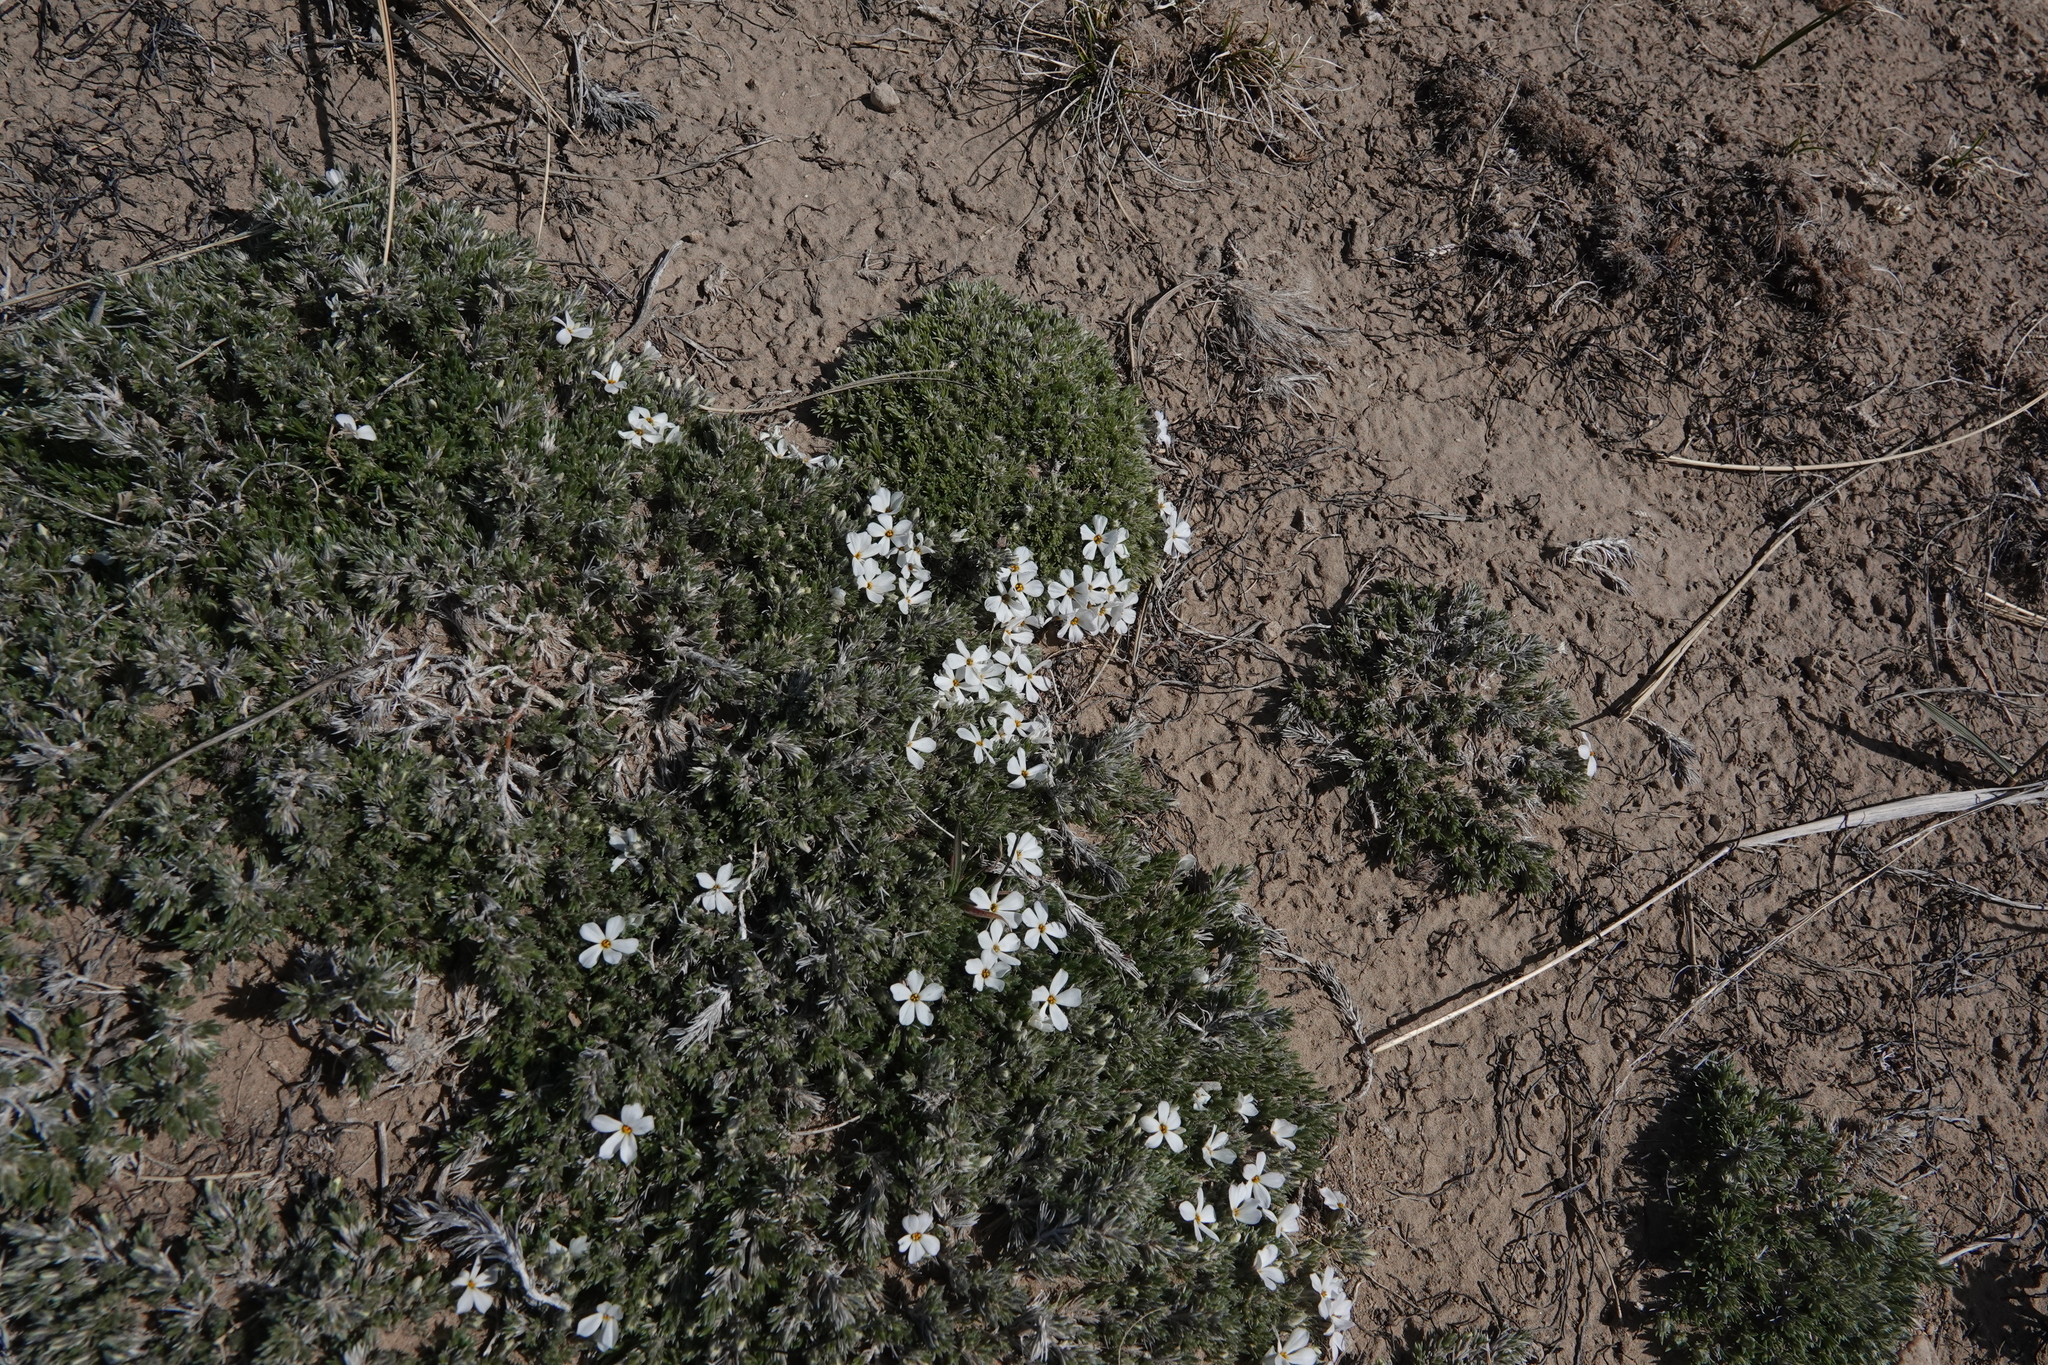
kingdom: Plantae
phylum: Tracheophyta
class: Magnoliopsida
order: Ericales
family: Polemoniaceae
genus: Phlox
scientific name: Phlox hoodii
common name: Moss phlox
